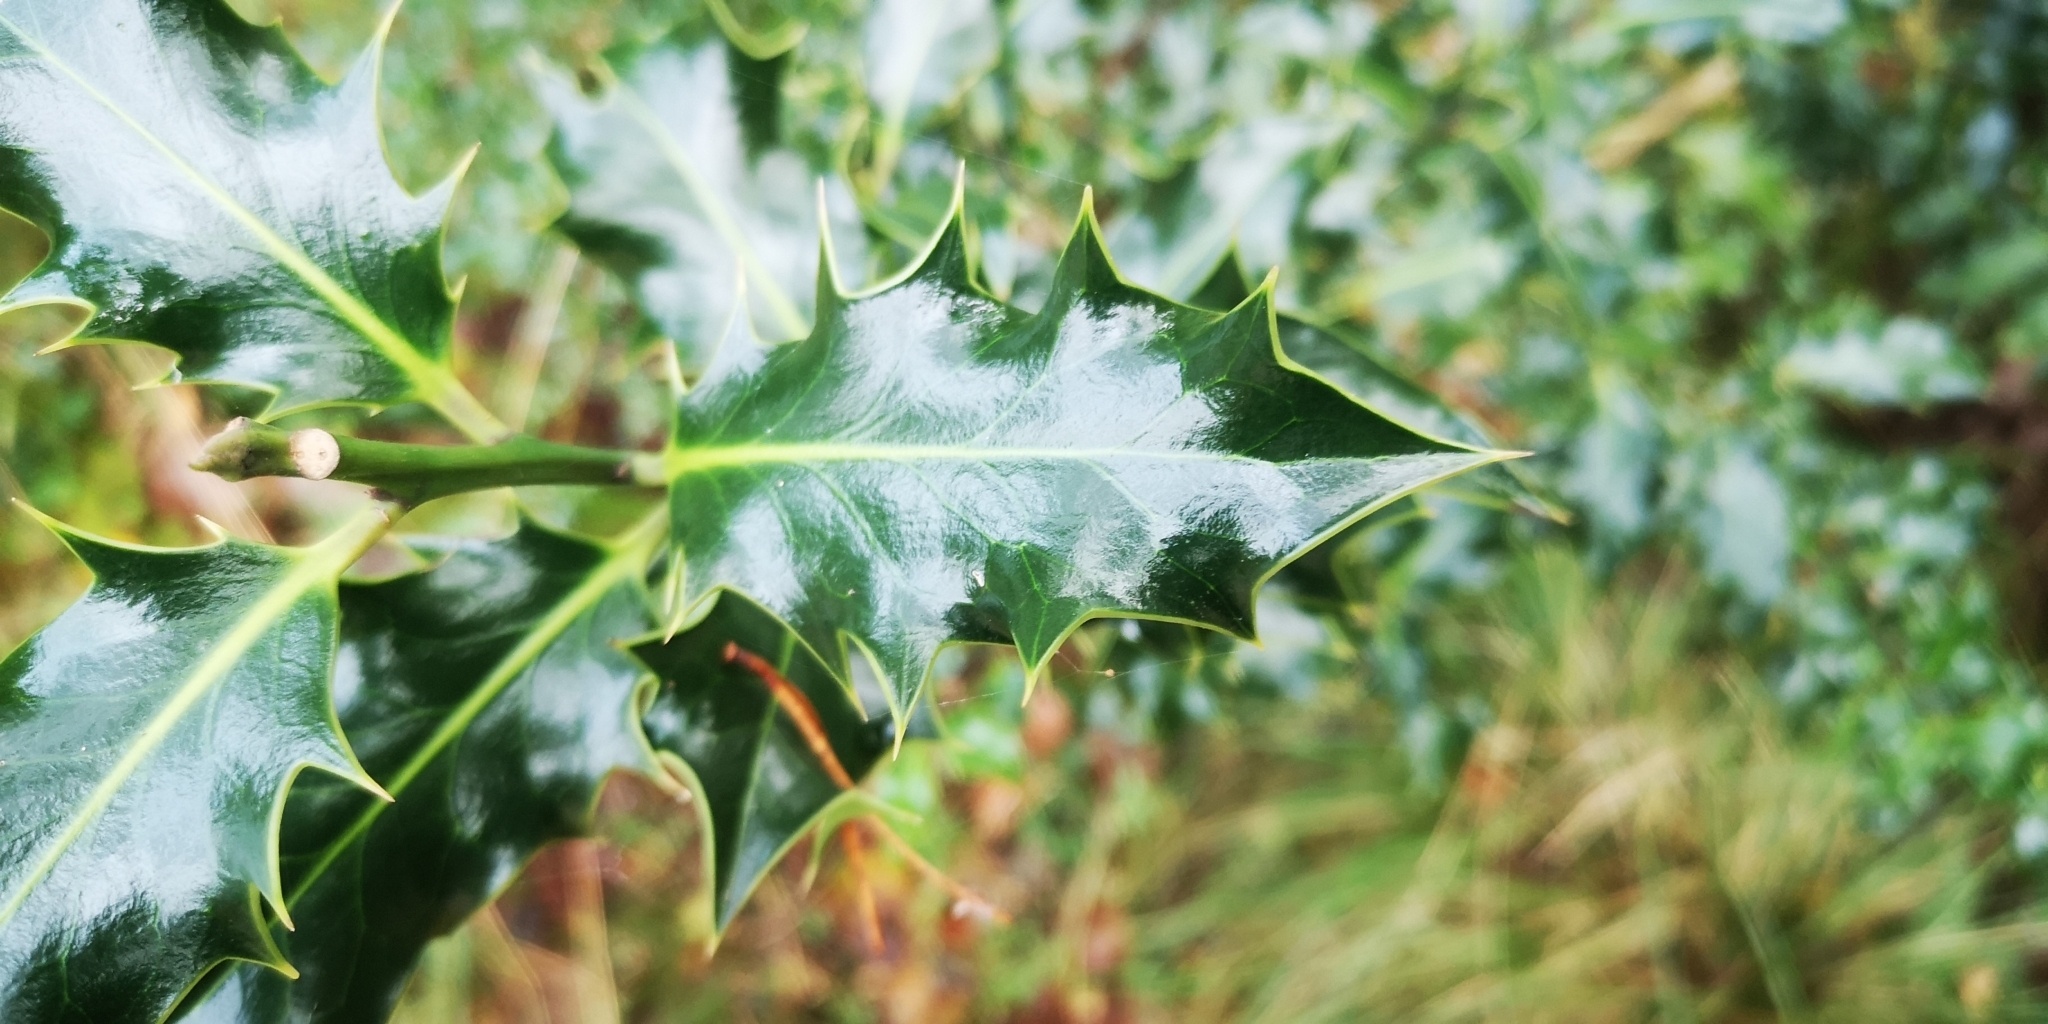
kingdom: Plantae
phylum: Tracheophyta
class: Magnoliopsida
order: Aquifoliales
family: Aquifoliaceae
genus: Ilex
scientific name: Ilex aquifolium
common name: English holly
